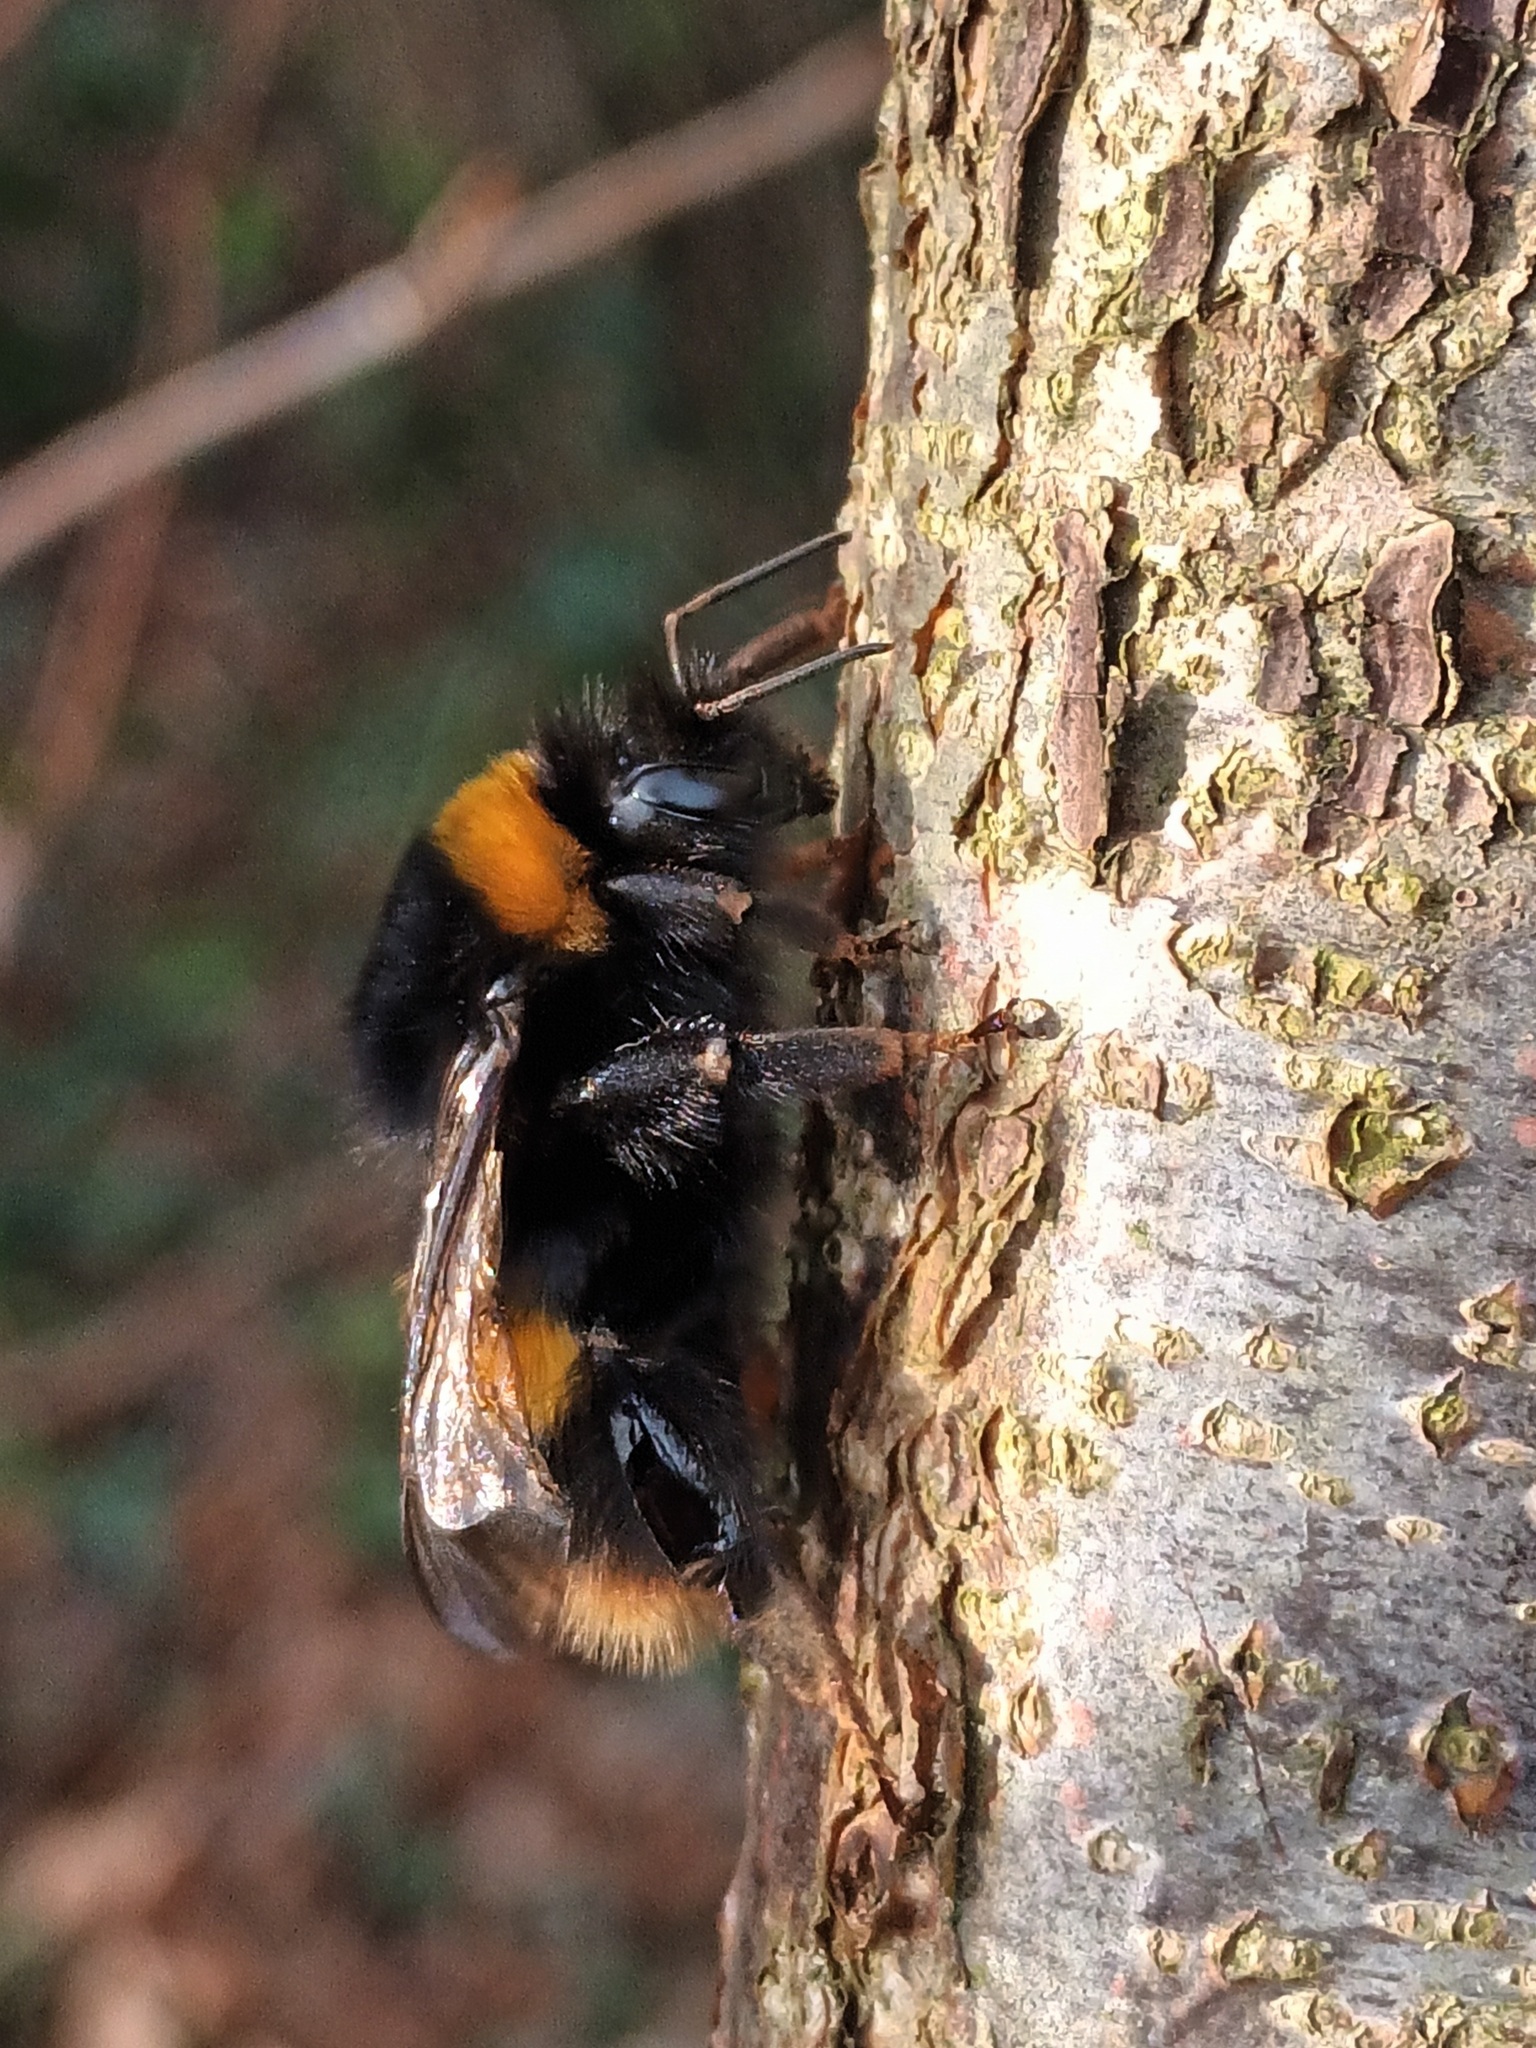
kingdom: Animalia
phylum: Arthropoda
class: Insecta
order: Hymenoptera
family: Apidae
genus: Bombus
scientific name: Bombus terrestris
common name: Buff-tailed bumblebee
